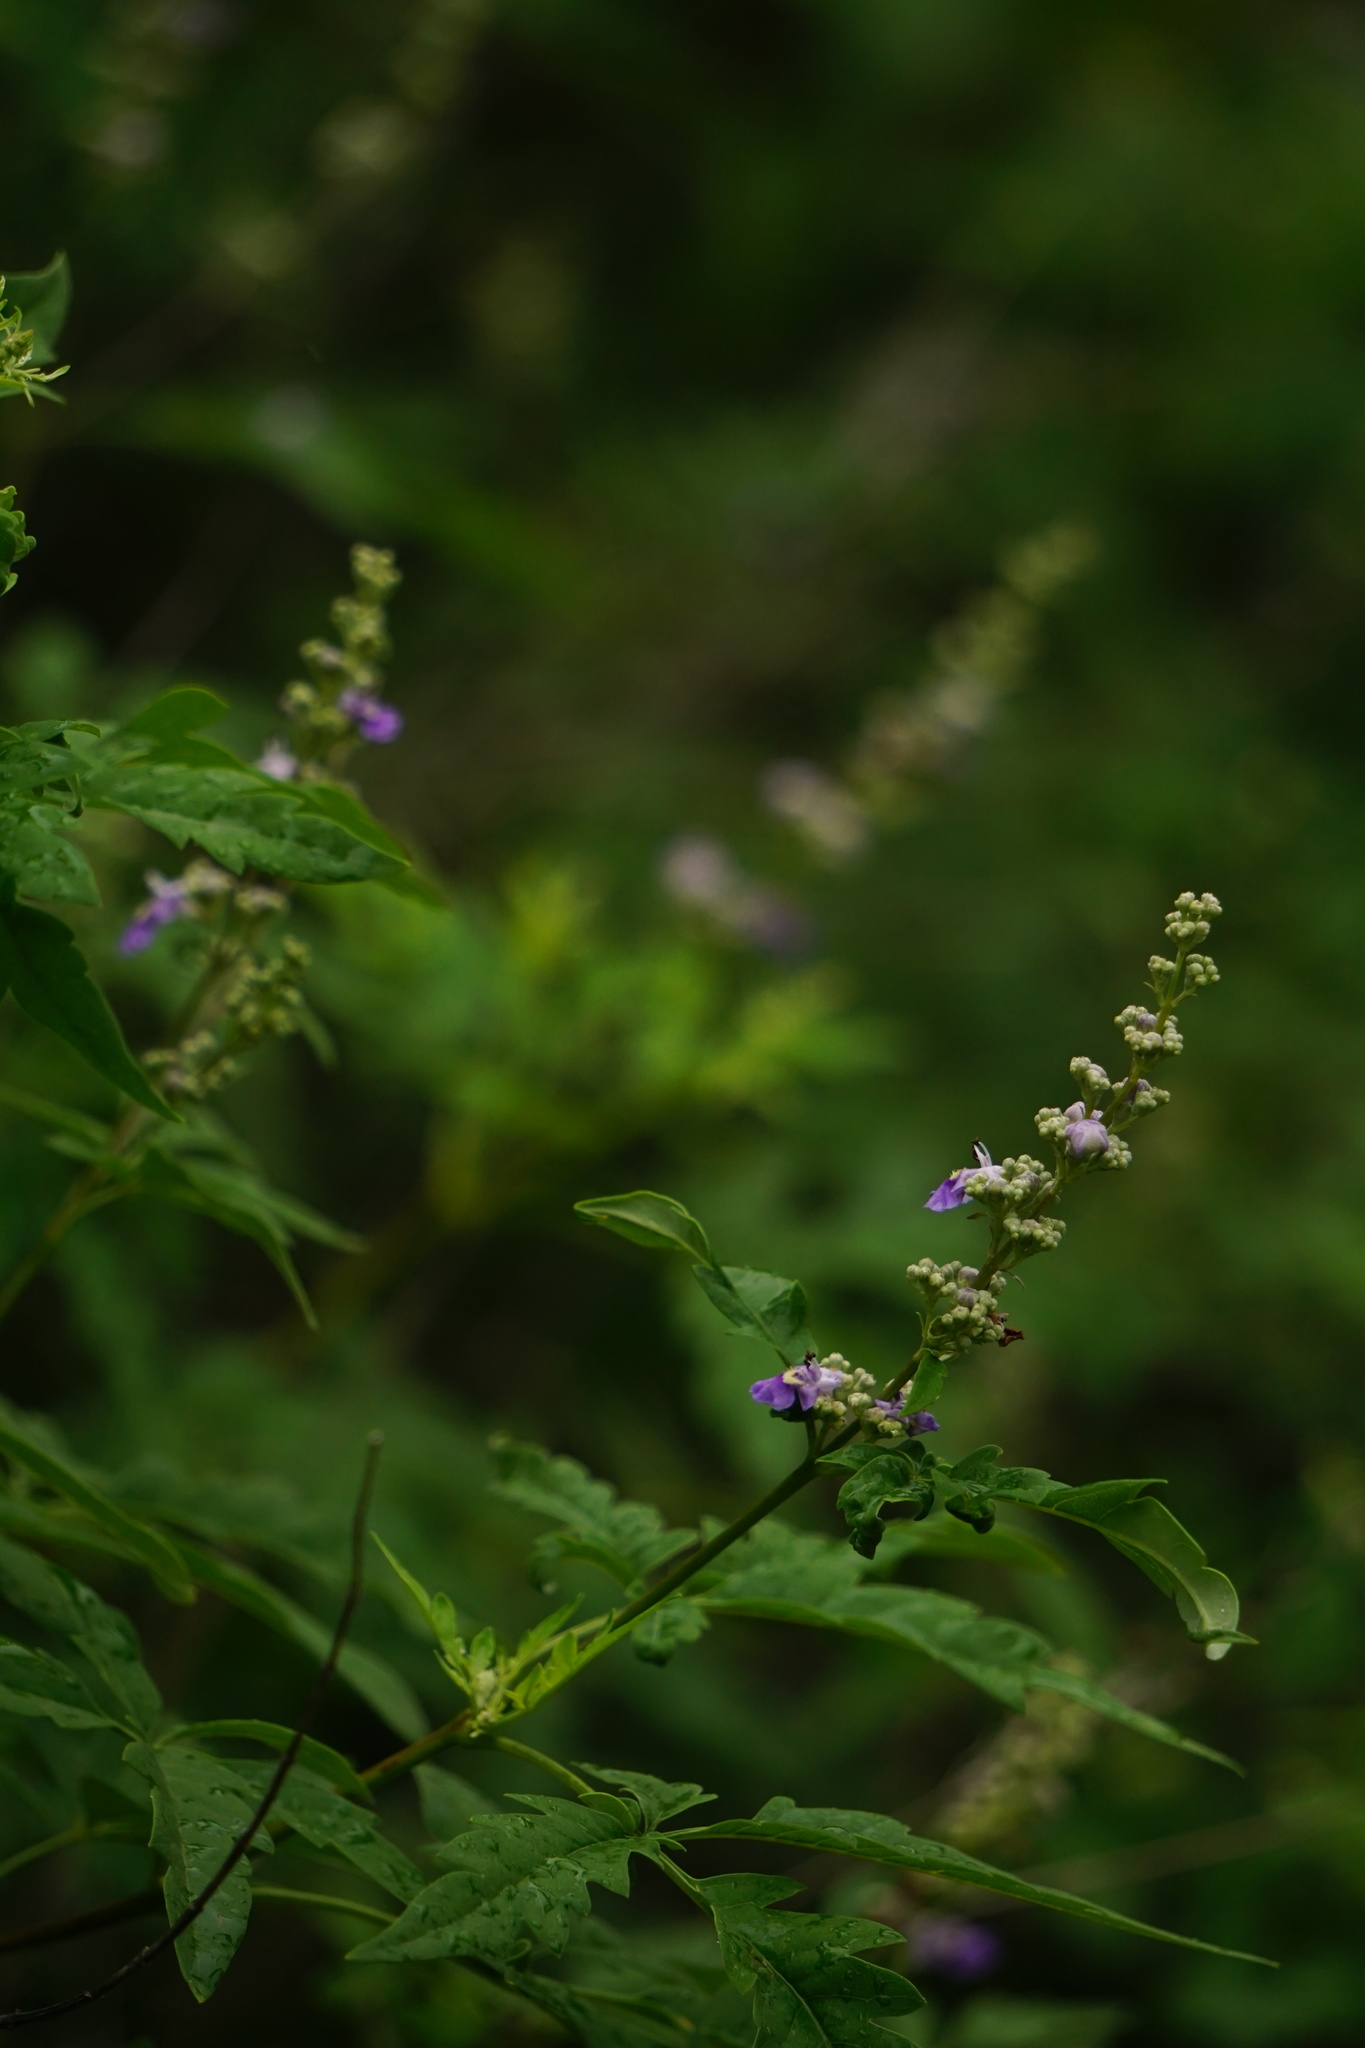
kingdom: Plantae
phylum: Tracheophyta
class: Magnoliopsida
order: Lamiales
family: Lamiaceae
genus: Vitex
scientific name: Vitex negundo
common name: Chinese chastetree
